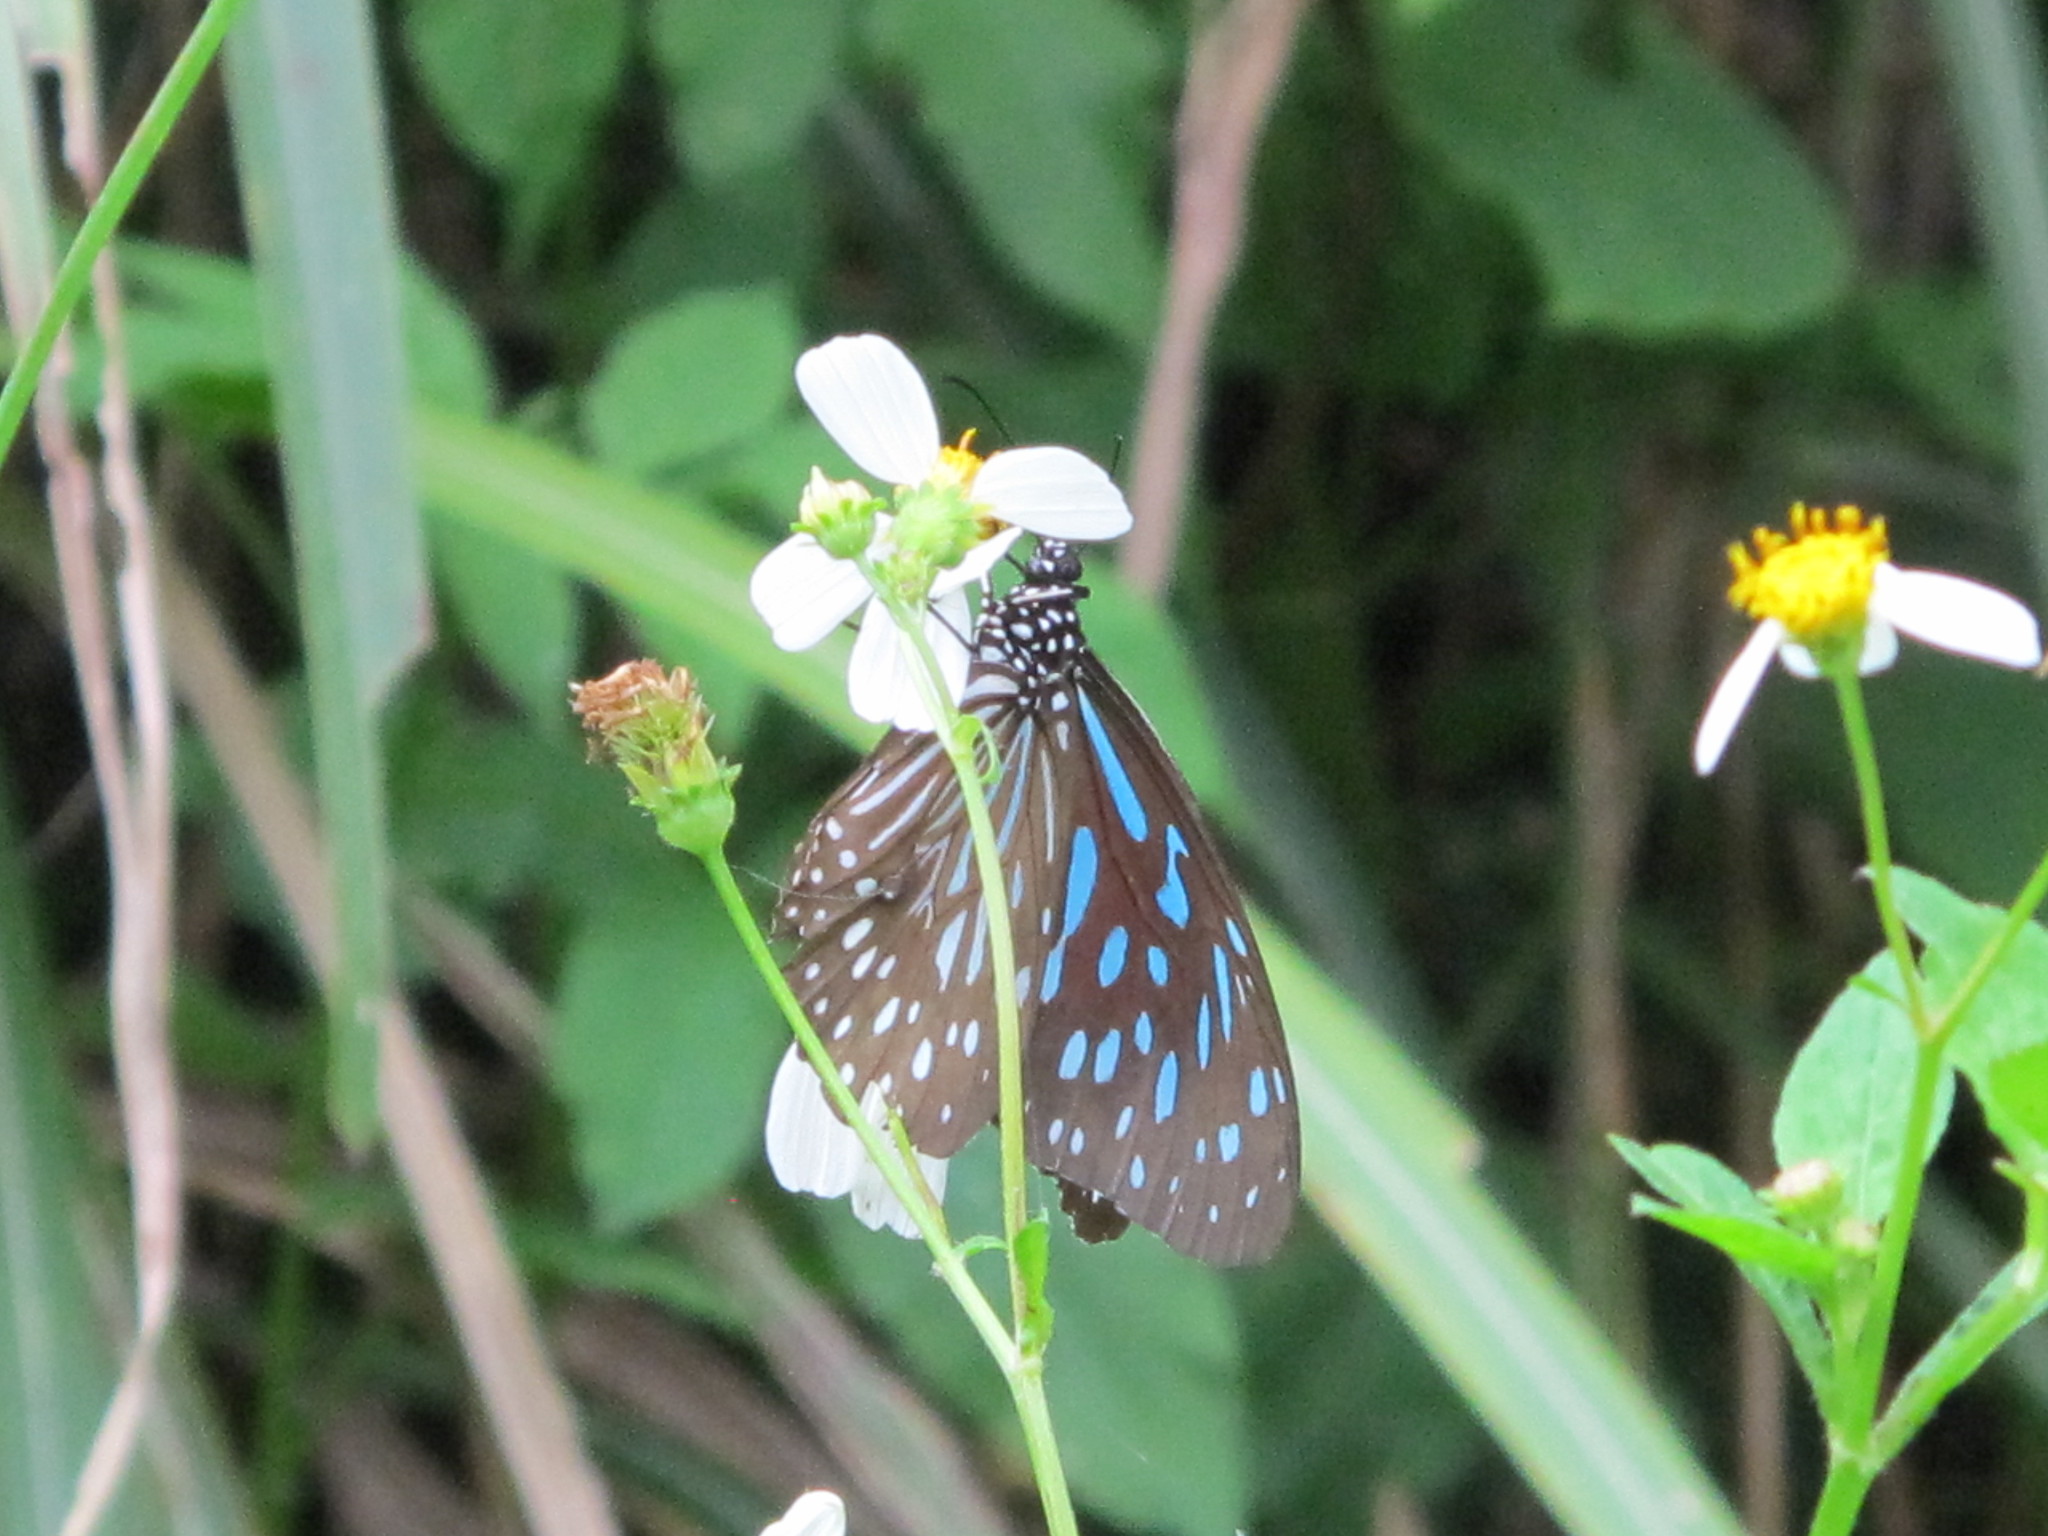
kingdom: Animalia
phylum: Arthropoda
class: Insecta
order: Lepidoptera
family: Nymphalidae
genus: Tirumala
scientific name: Tirumala septentrionis
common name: Dark blue tiger butterfly
